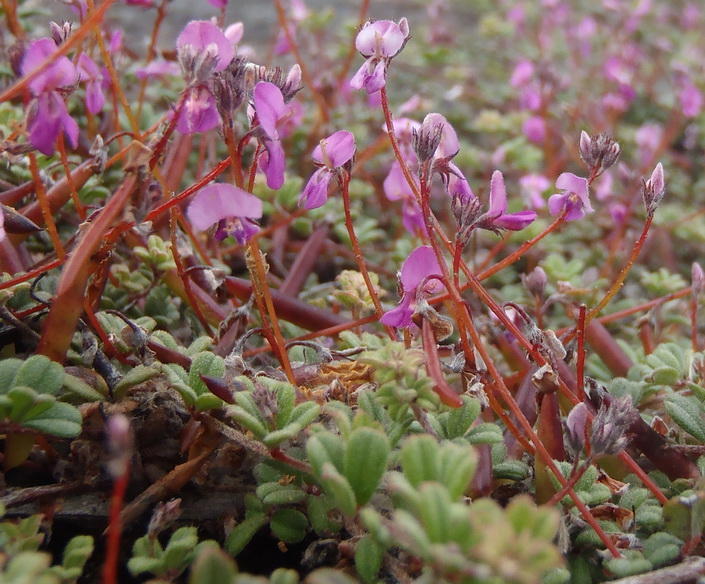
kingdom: Plantae
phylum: Tracheophyta
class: Magnoliopsida
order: Fabales
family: Fabaceae
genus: Indigofera
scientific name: Indigofera
